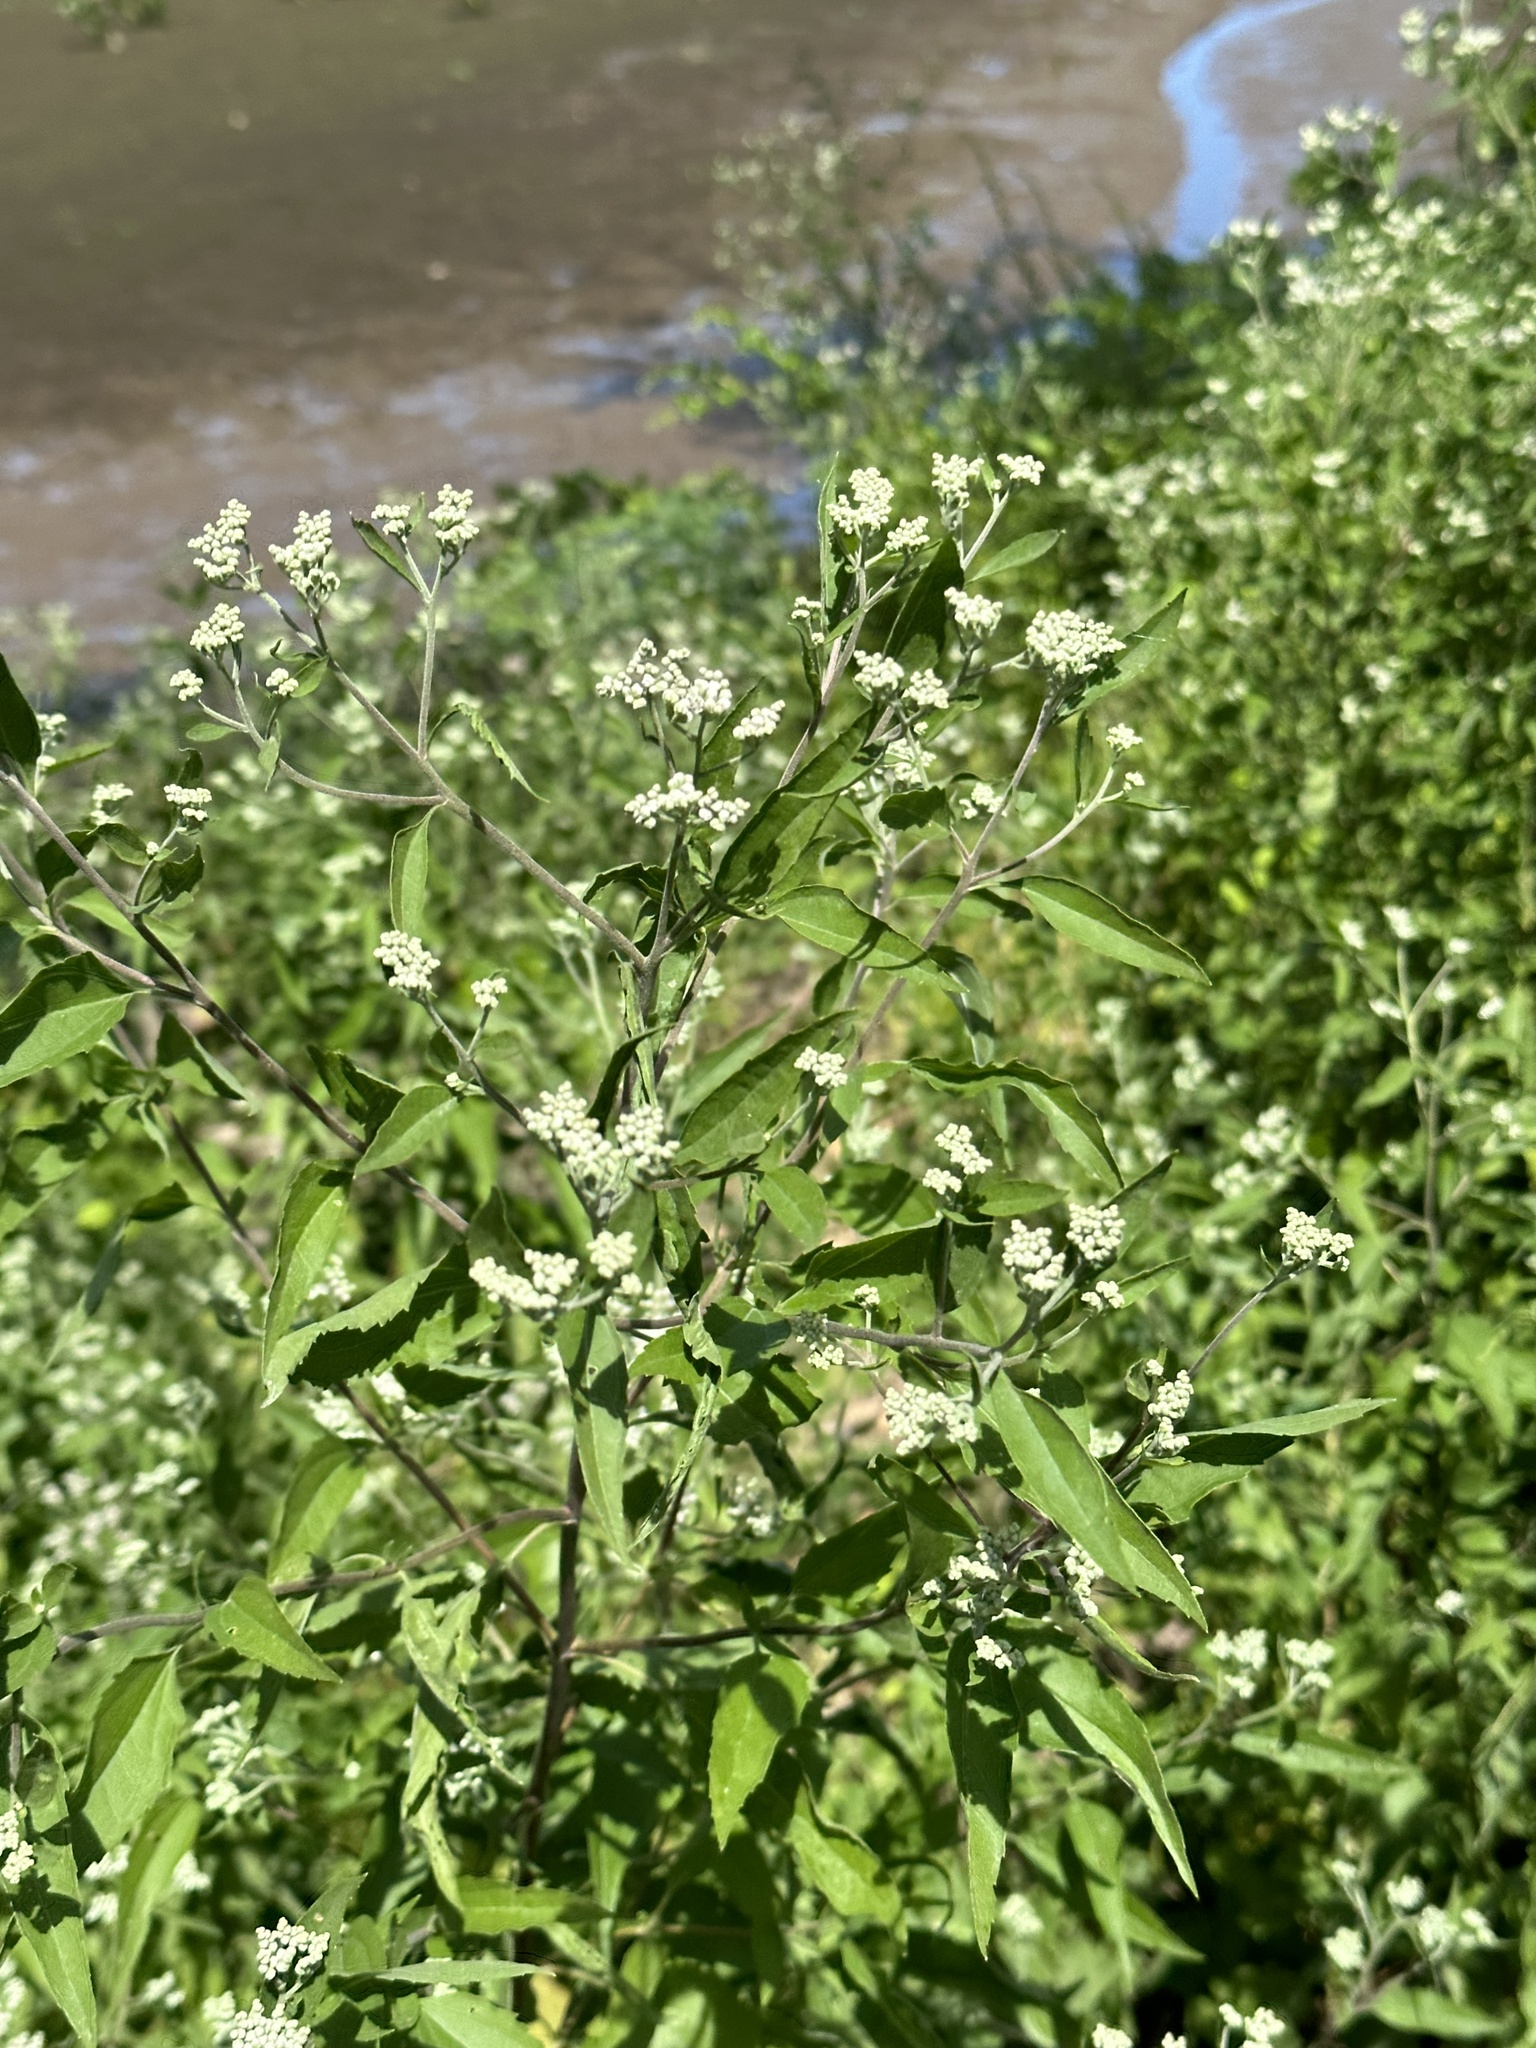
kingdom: Plantae
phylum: Tracheophyta
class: Magnoliopsida
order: Asterales
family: Asteraceae
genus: Eupatorium
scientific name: Eupatorium serotinum
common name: Late boneset
